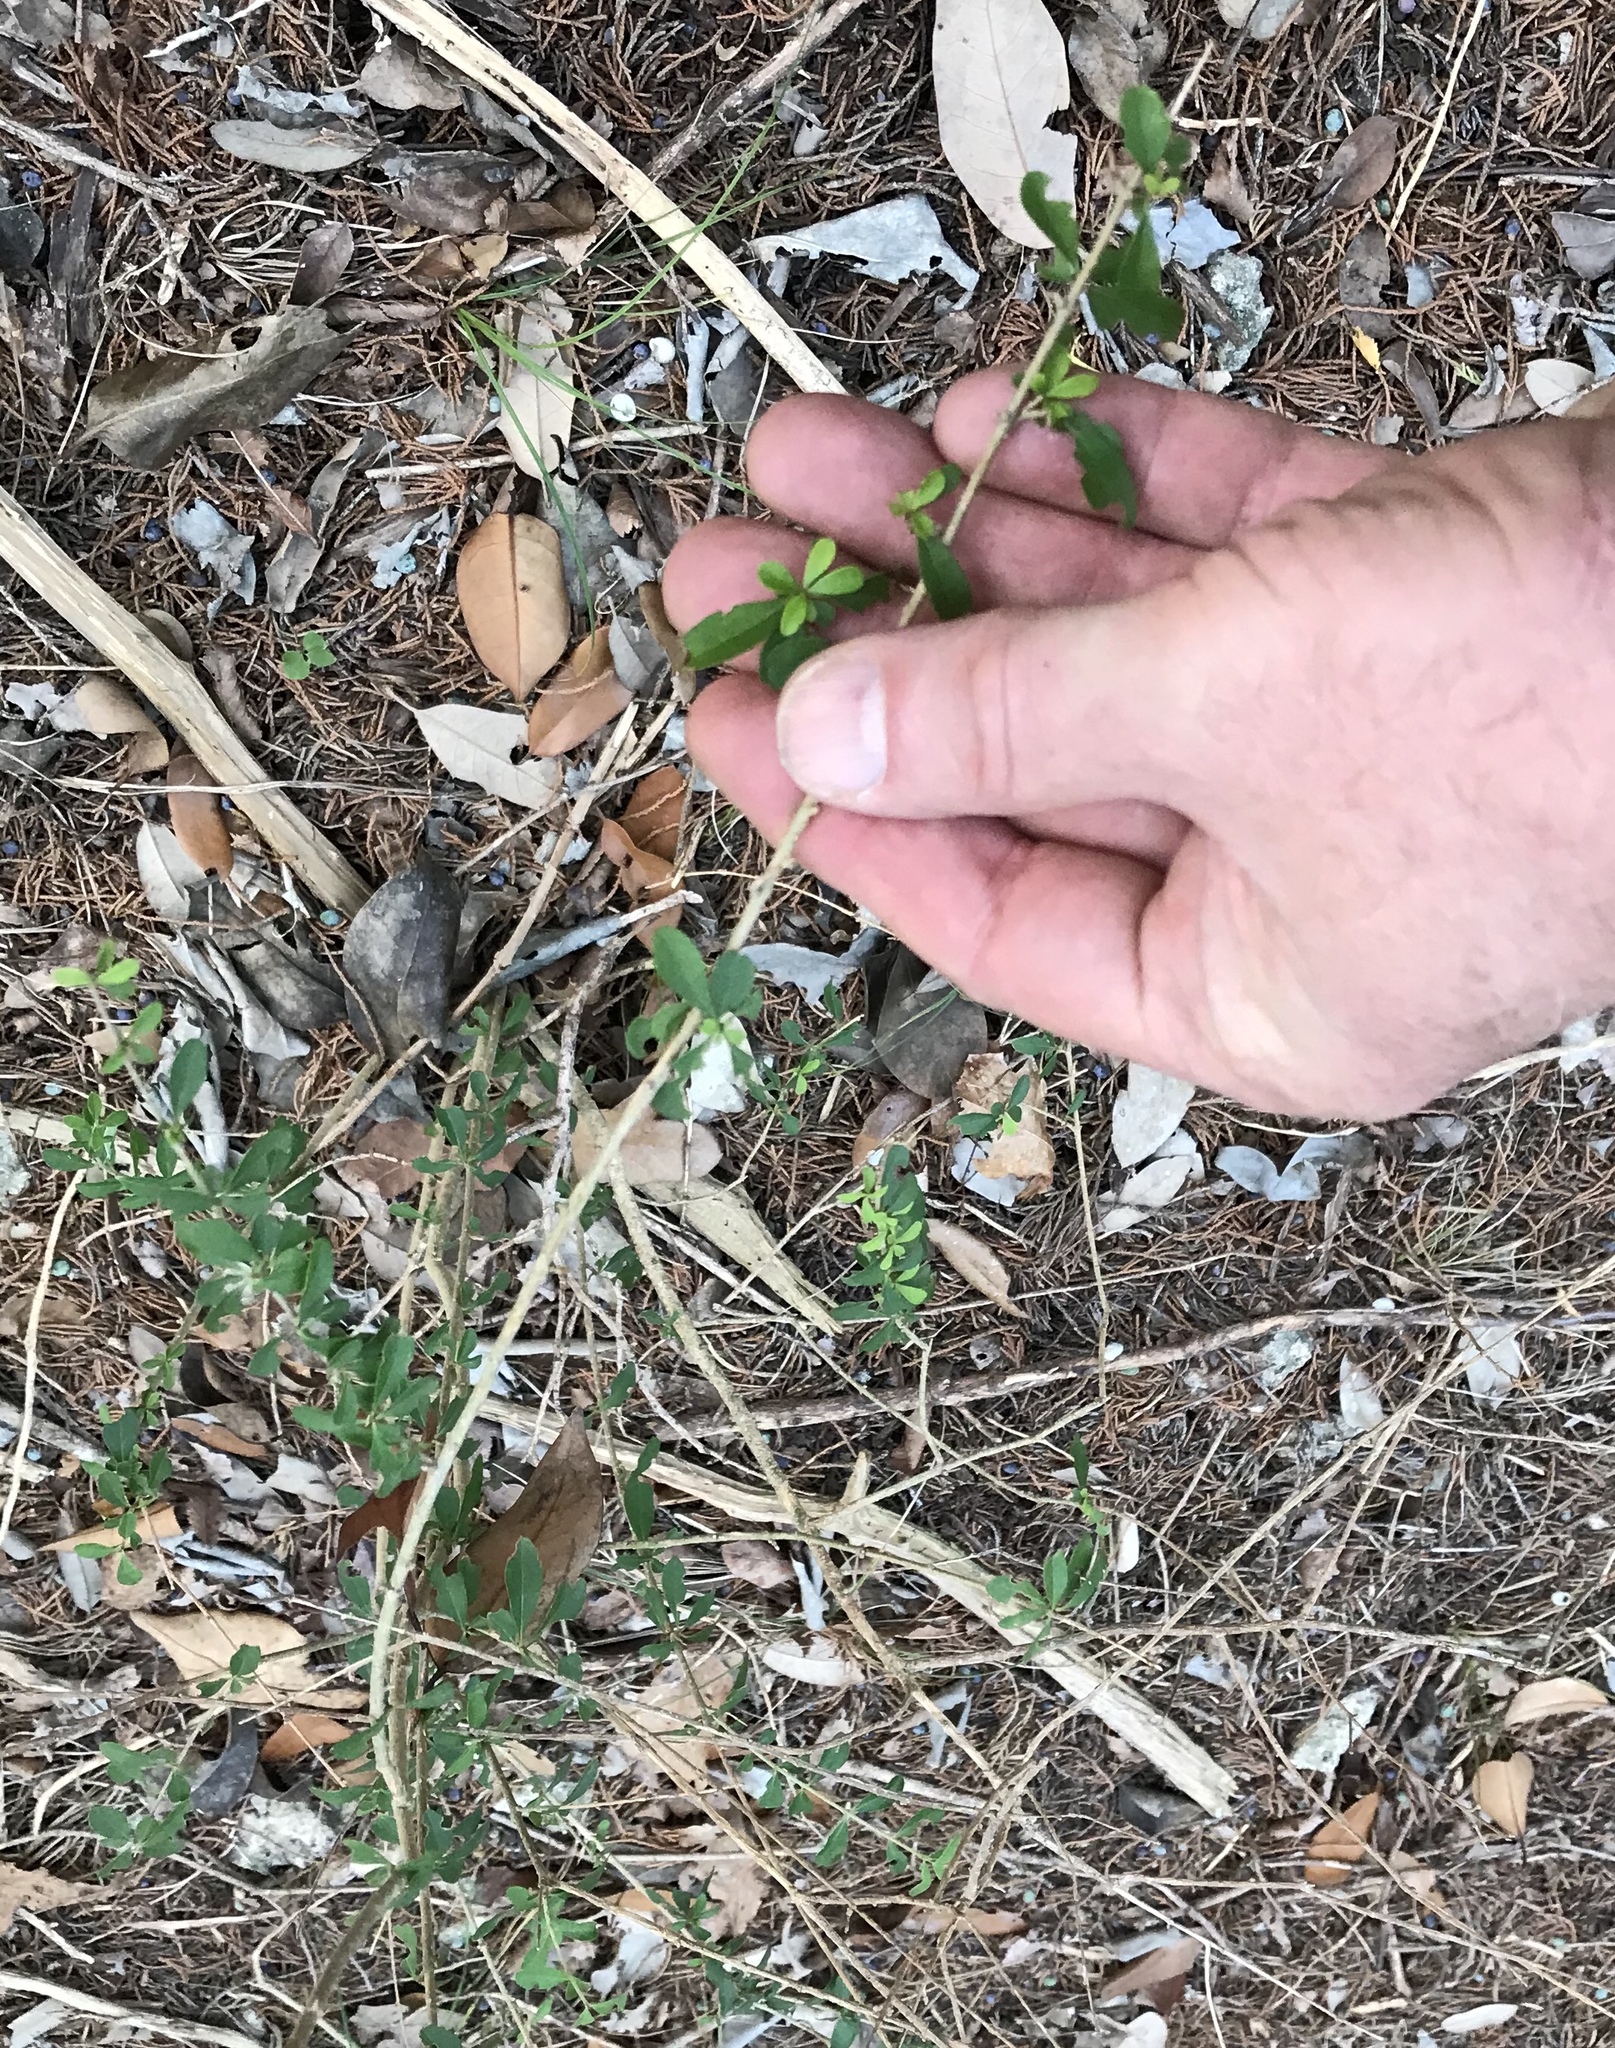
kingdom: Plantae
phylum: Tracheophyta
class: Magnoliopsida
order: Lamiales
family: Oleaceae
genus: Ligustrum
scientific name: Ligustrum quihoui
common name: Waxyleaf privet
